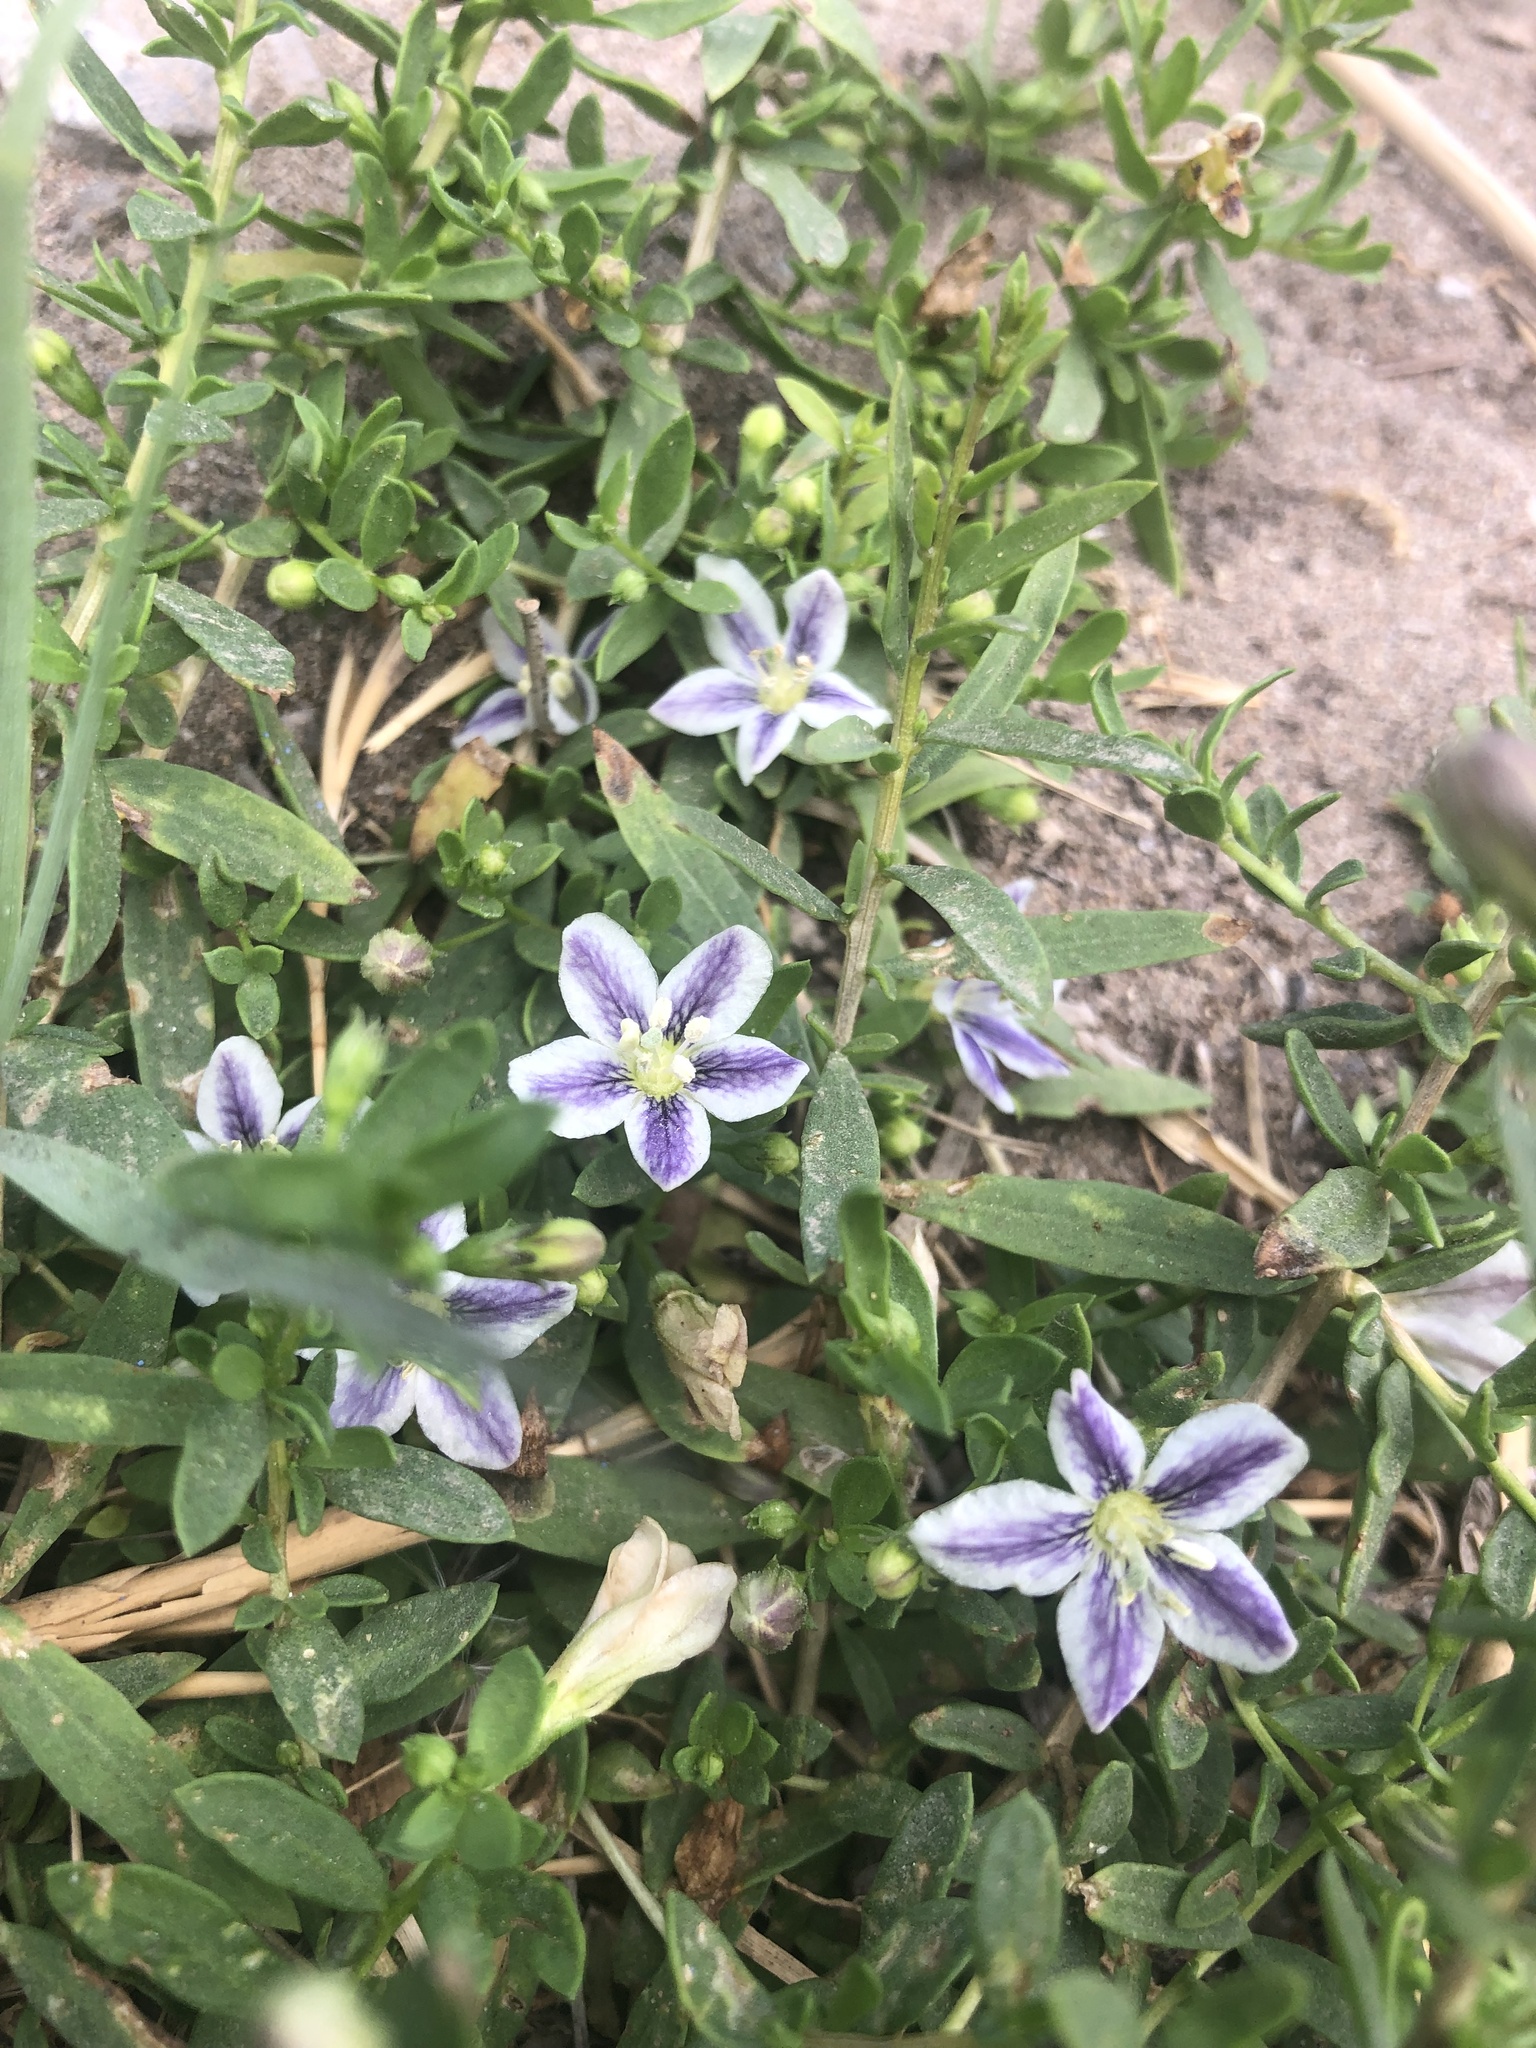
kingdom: Plantae
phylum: Tracheophyta
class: Magnoliopsida
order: Solanales
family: Solanaceae
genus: Lycium
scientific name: Lycium chilense
